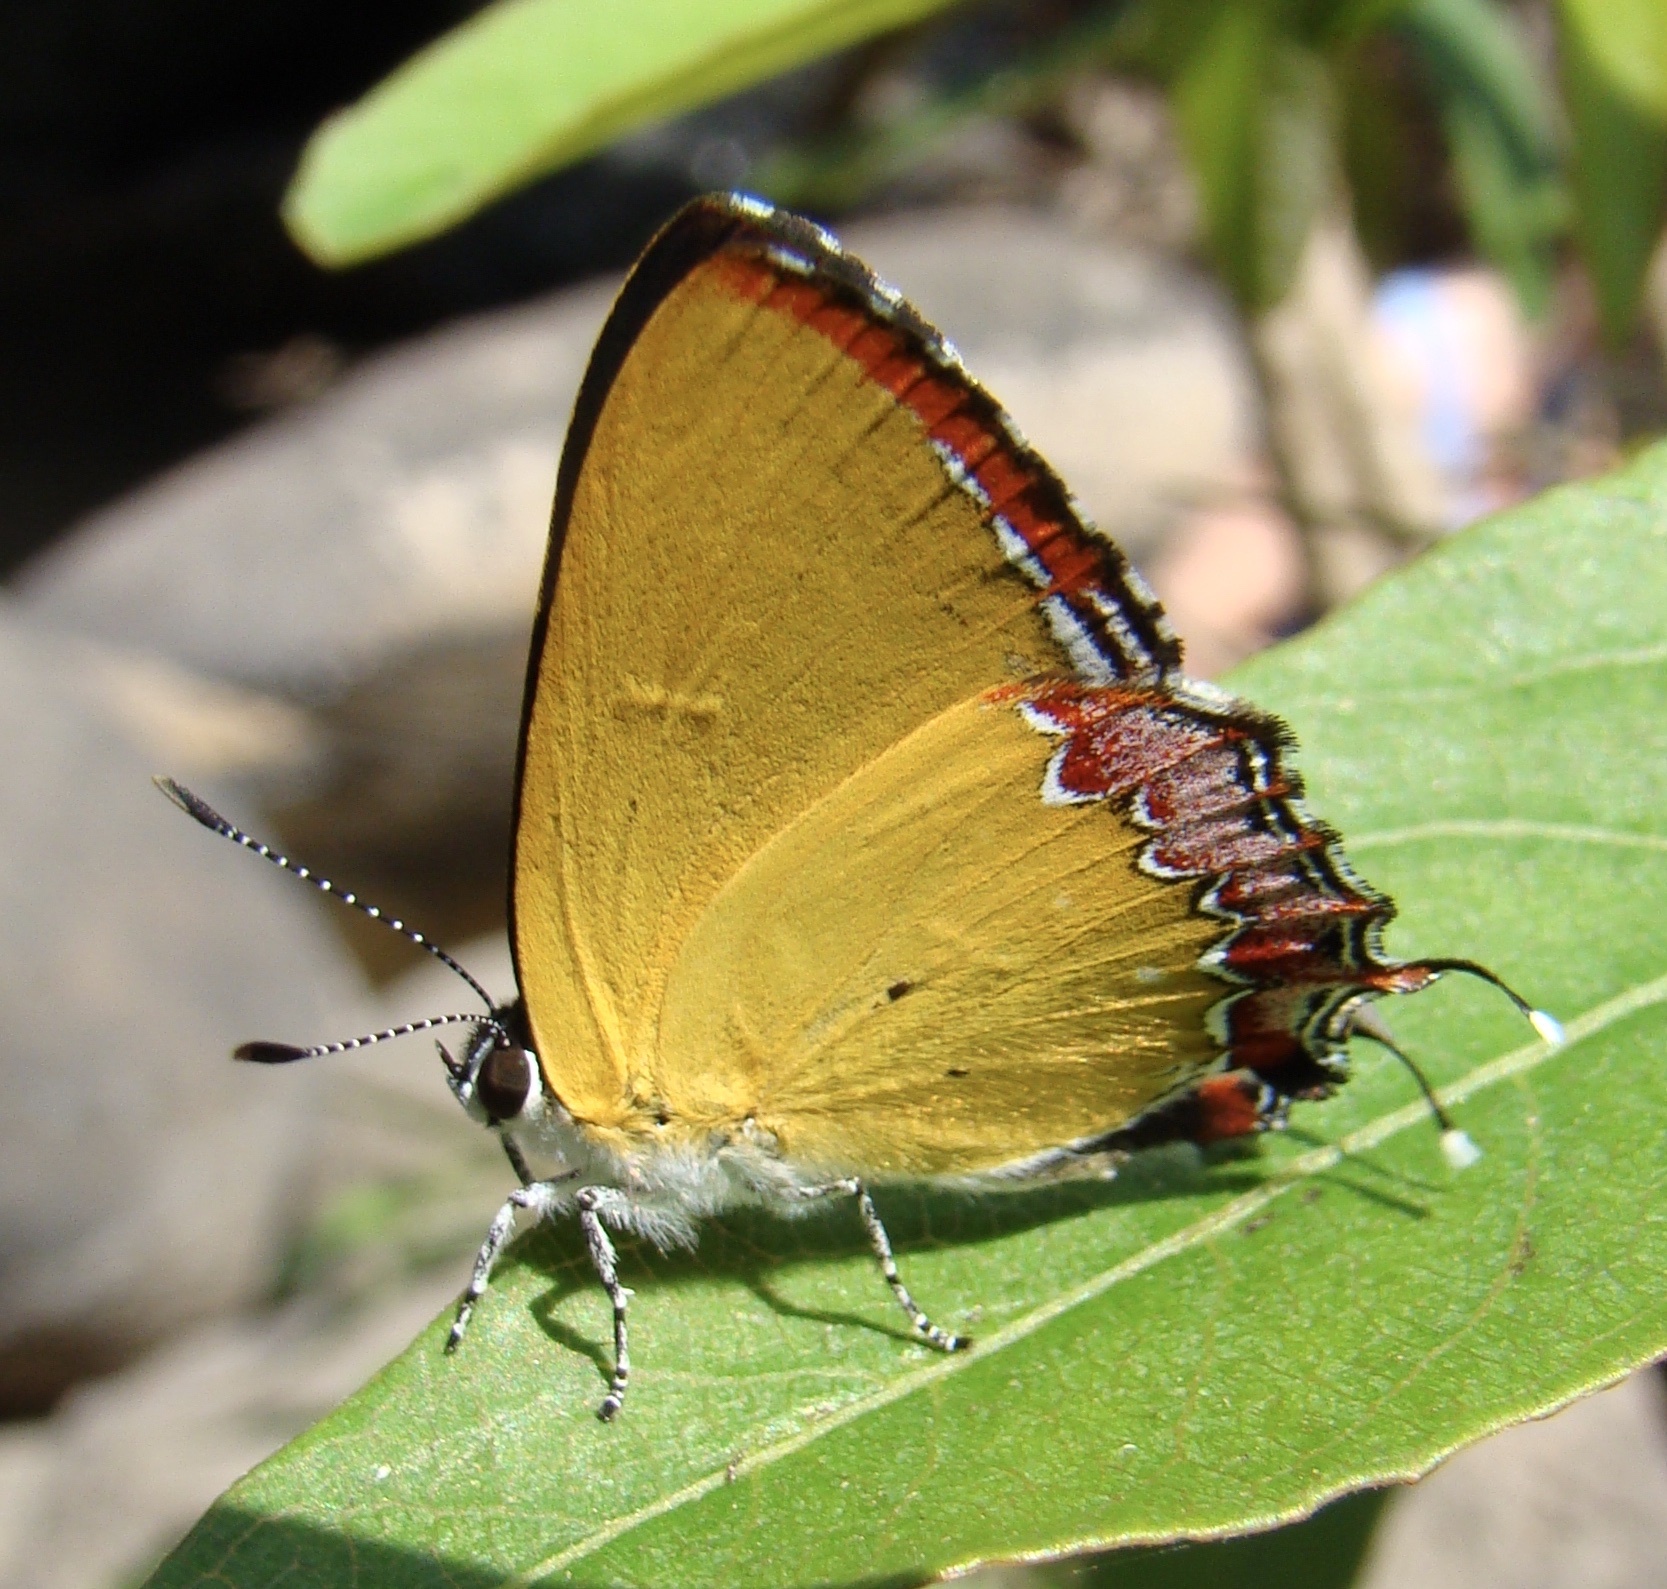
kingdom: Animalia
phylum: Arthropoda
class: Insecta
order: Lepidoptera
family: Lycaenidae
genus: Heliophorus
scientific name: Heliophorus epicles
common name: Purple sapphire
